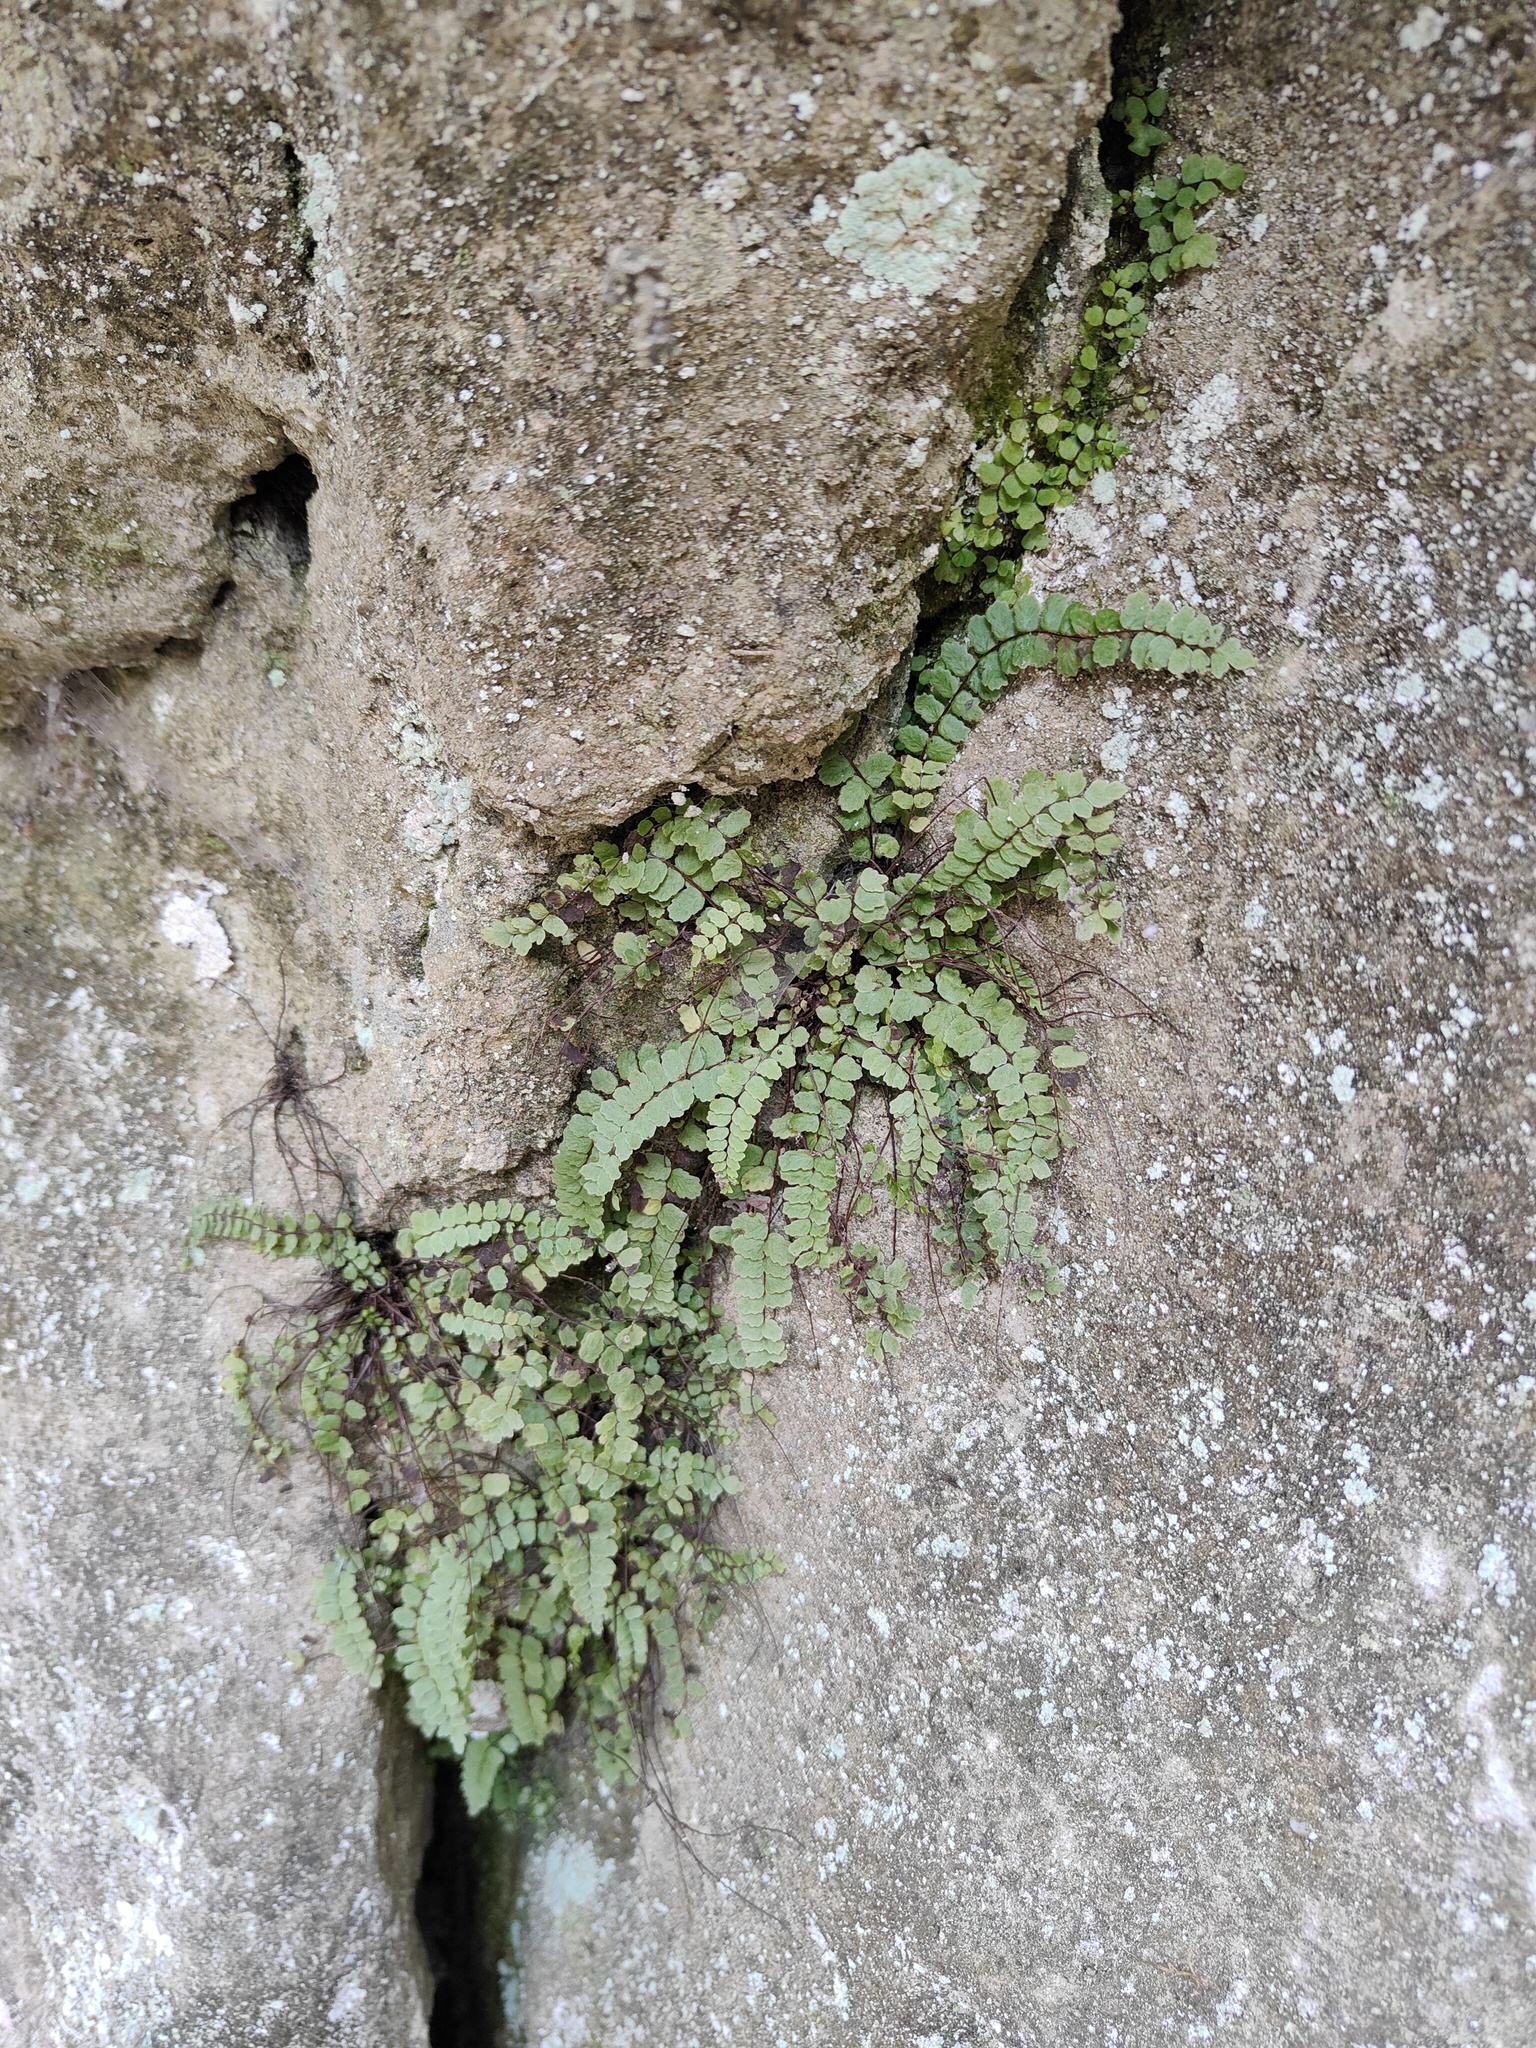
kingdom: Plantae
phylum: Tracheophyta
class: Polypodiopsida
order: Polypodiales
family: Aspleniaceae
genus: Asplenium
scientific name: Asplenium trichomanes
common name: Maidenhair spleenwort
